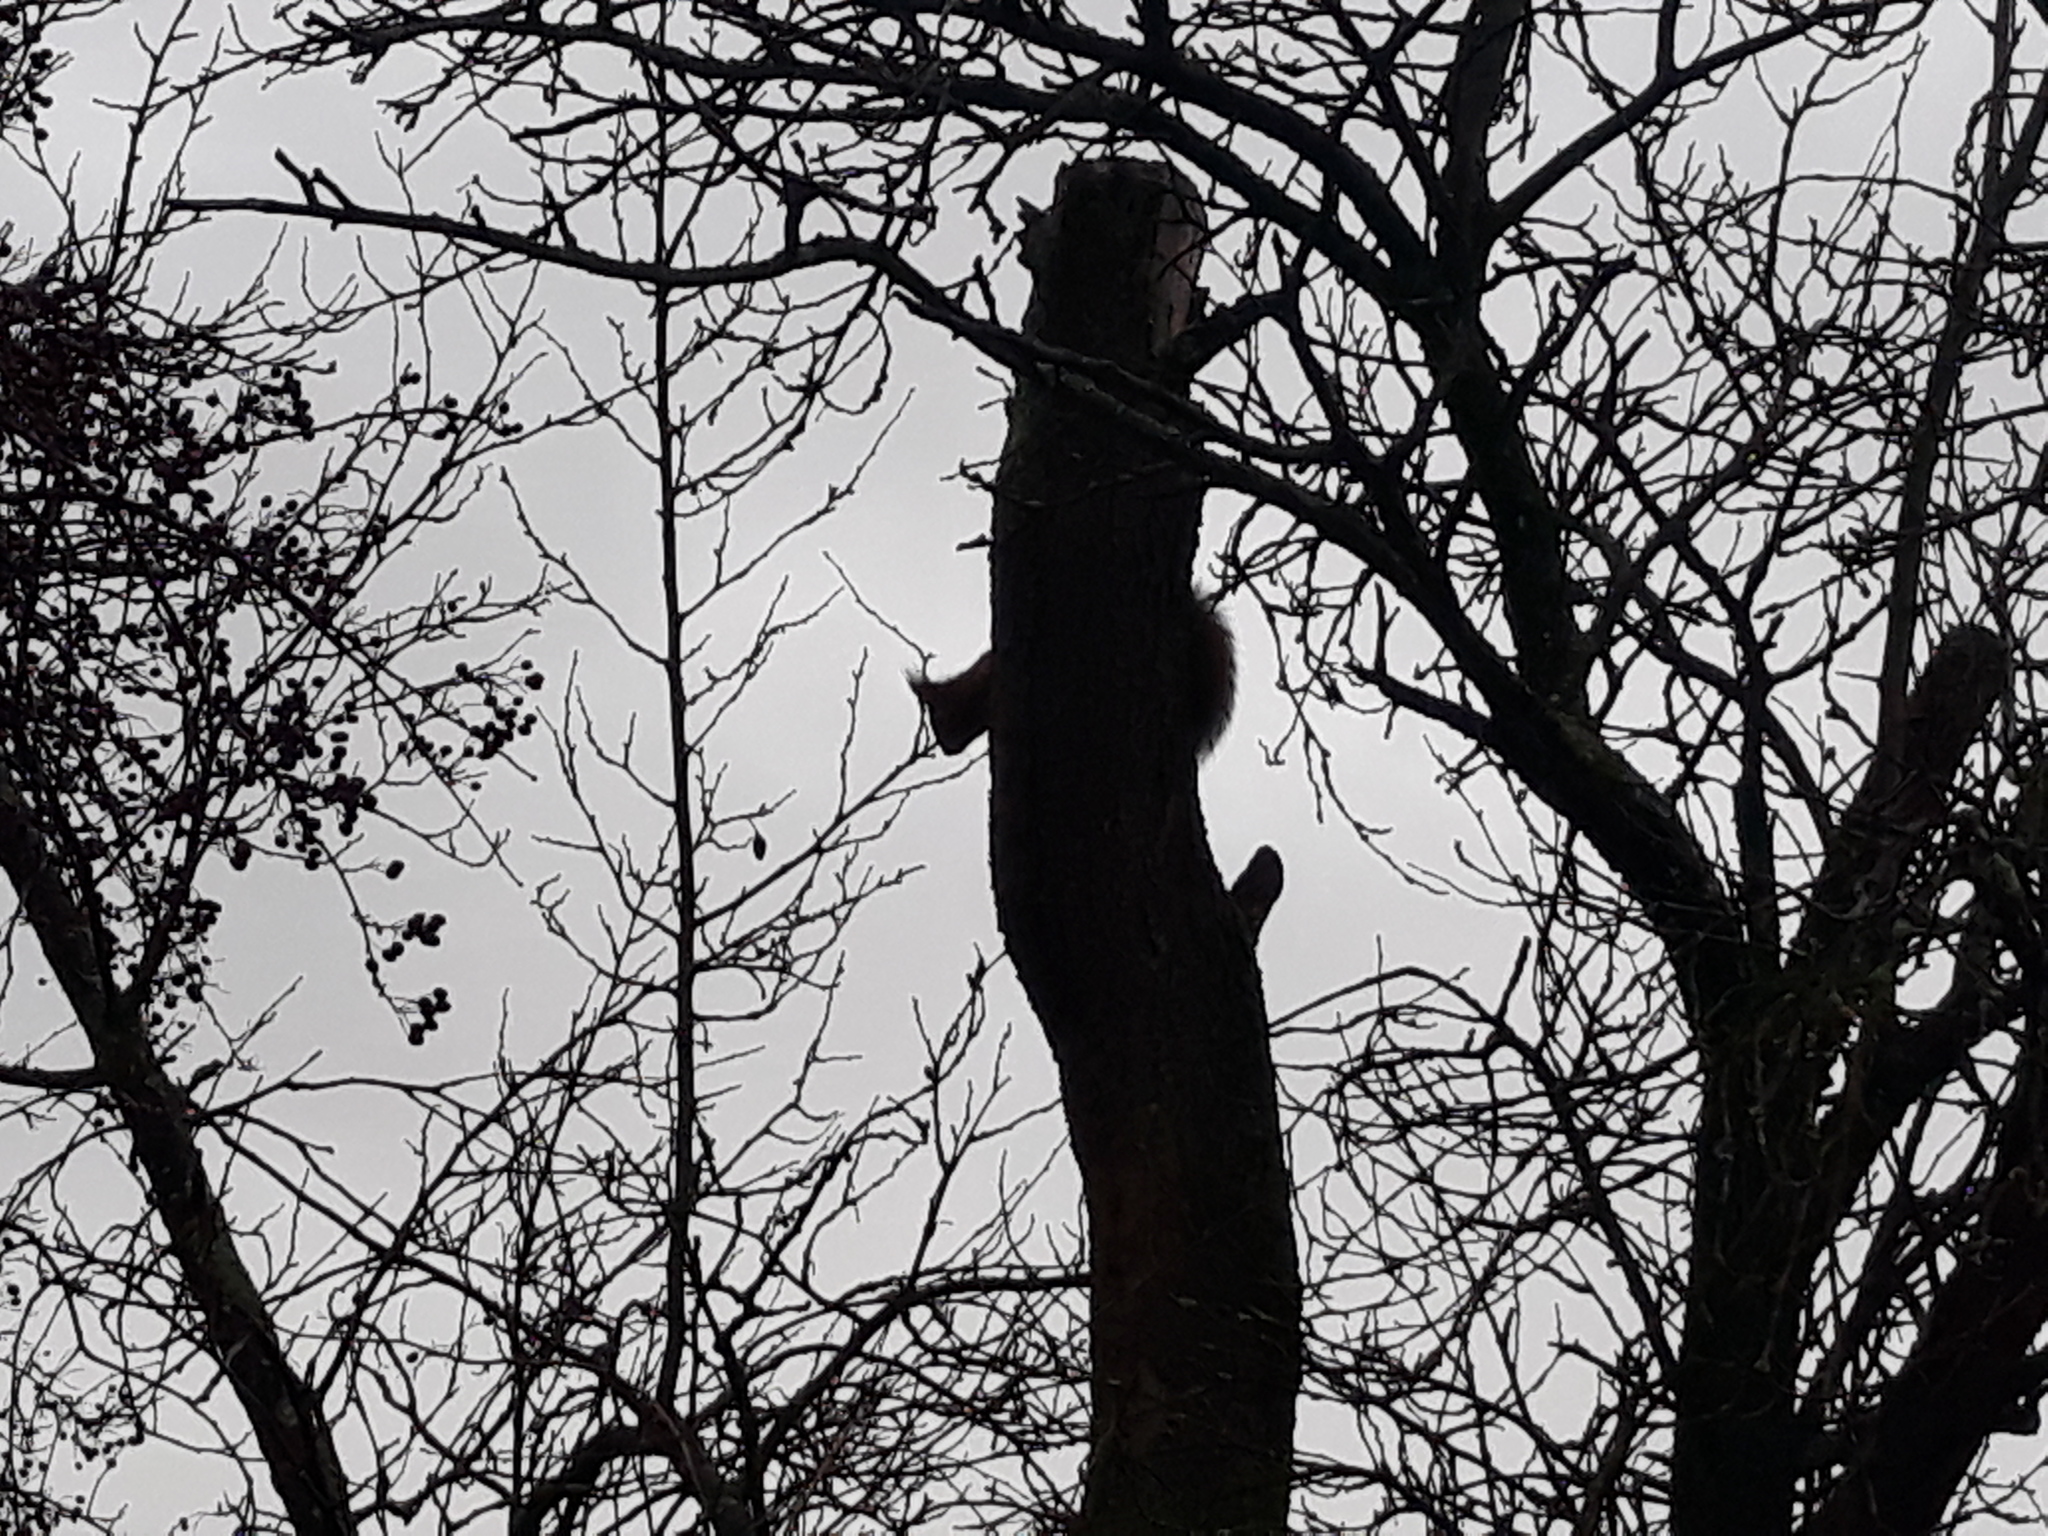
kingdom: Animalia
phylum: Chordata
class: Mammalia
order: Rodentia
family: Sciuridae
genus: Sciurus
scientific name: Sciurus vulgaris
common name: Eurasian red squirrel
